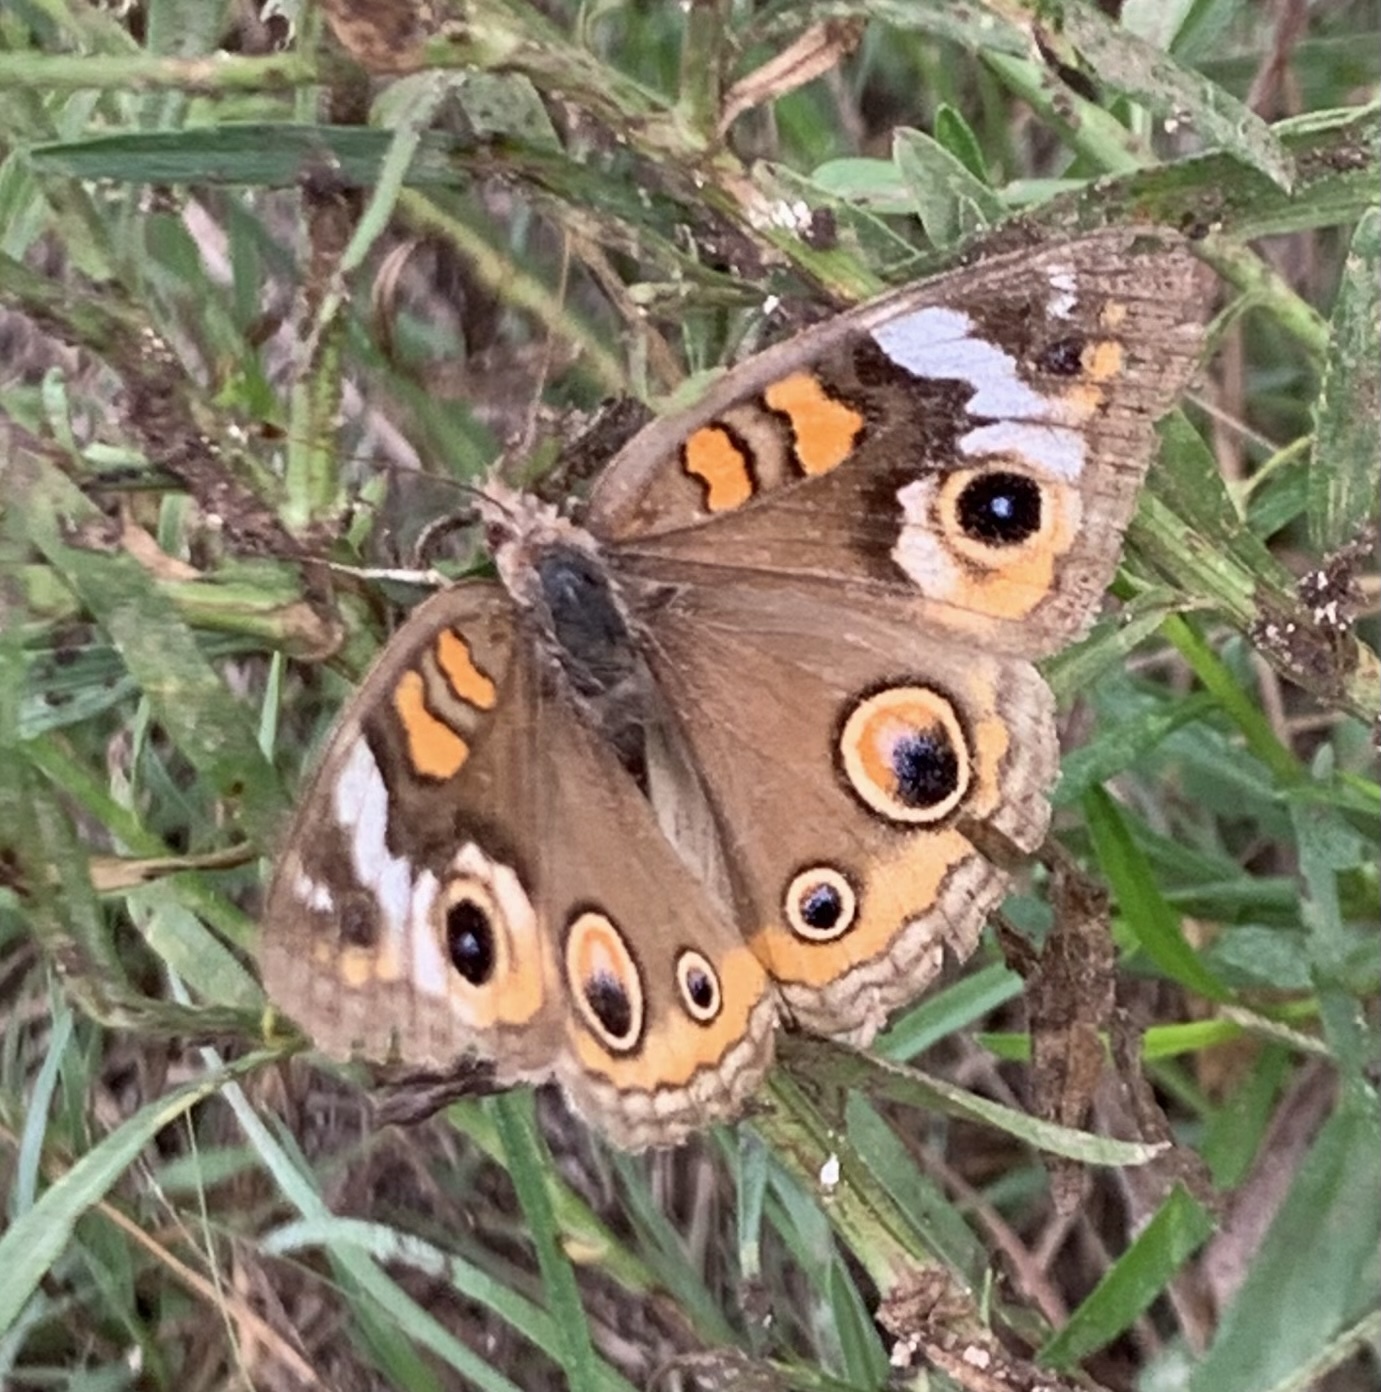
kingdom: Animalia
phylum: Arthropoda
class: Insecta
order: Lepidoptera
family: Nymphalidae
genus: Junonia
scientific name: Junonia coenia
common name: Common buckeye
